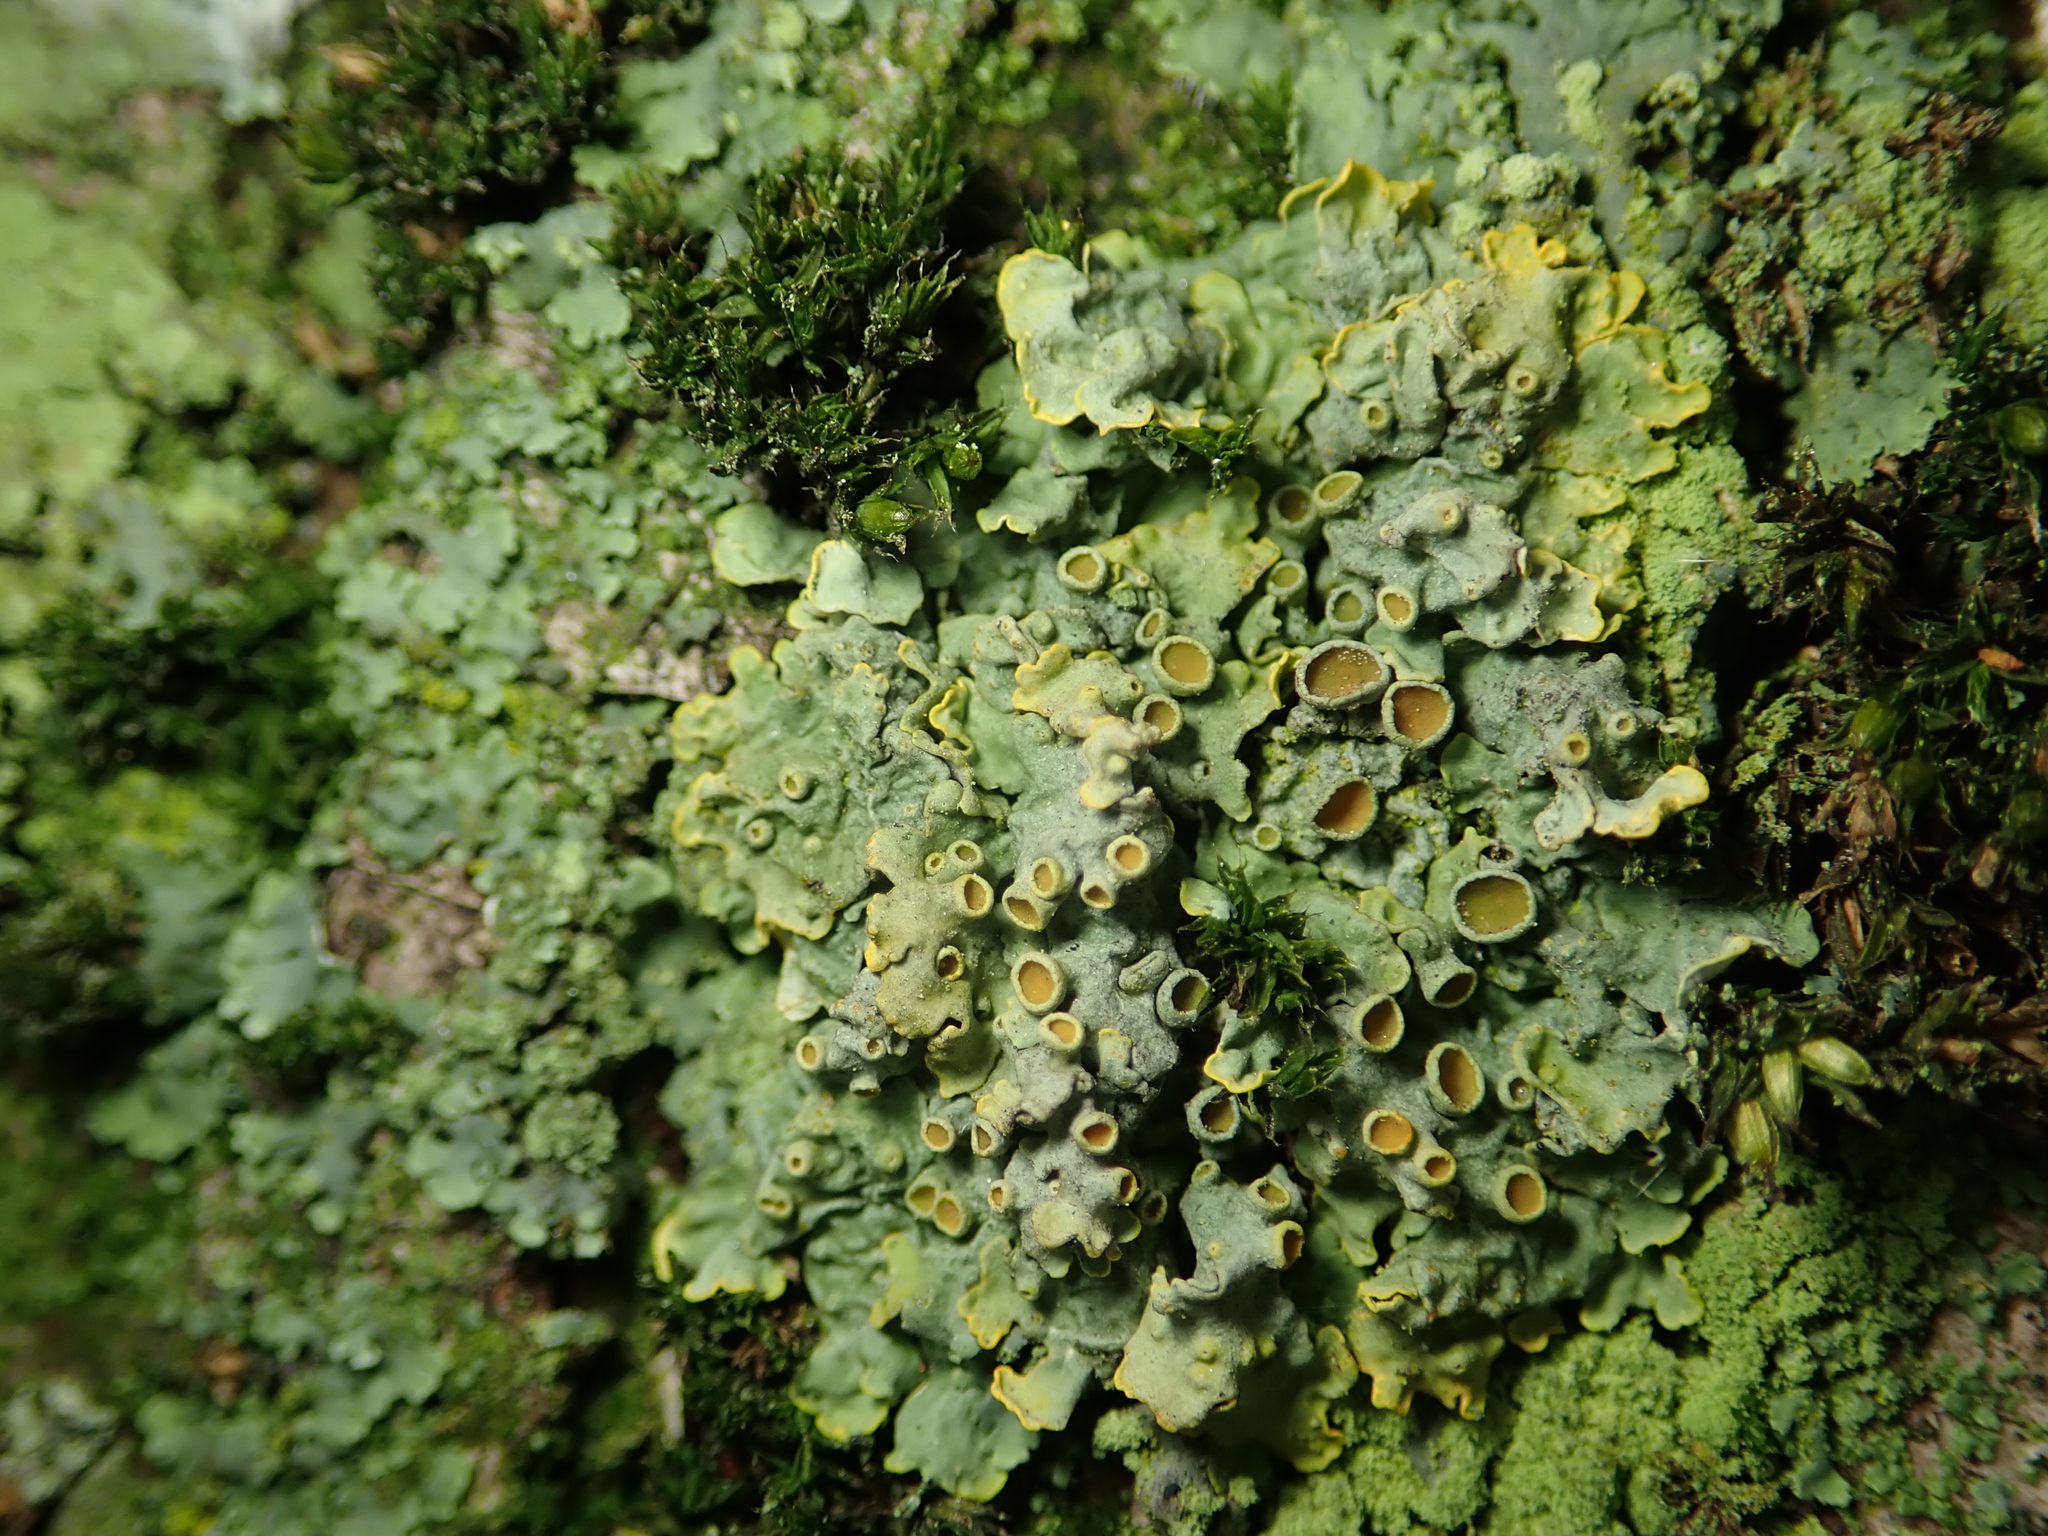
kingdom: Fungi
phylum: Ascomycota
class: Lecanoromycetes
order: Teloschistales
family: Teloschistaceae
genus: Xanthoria
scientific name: Xanthoria parietina
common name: Common orange lichen
